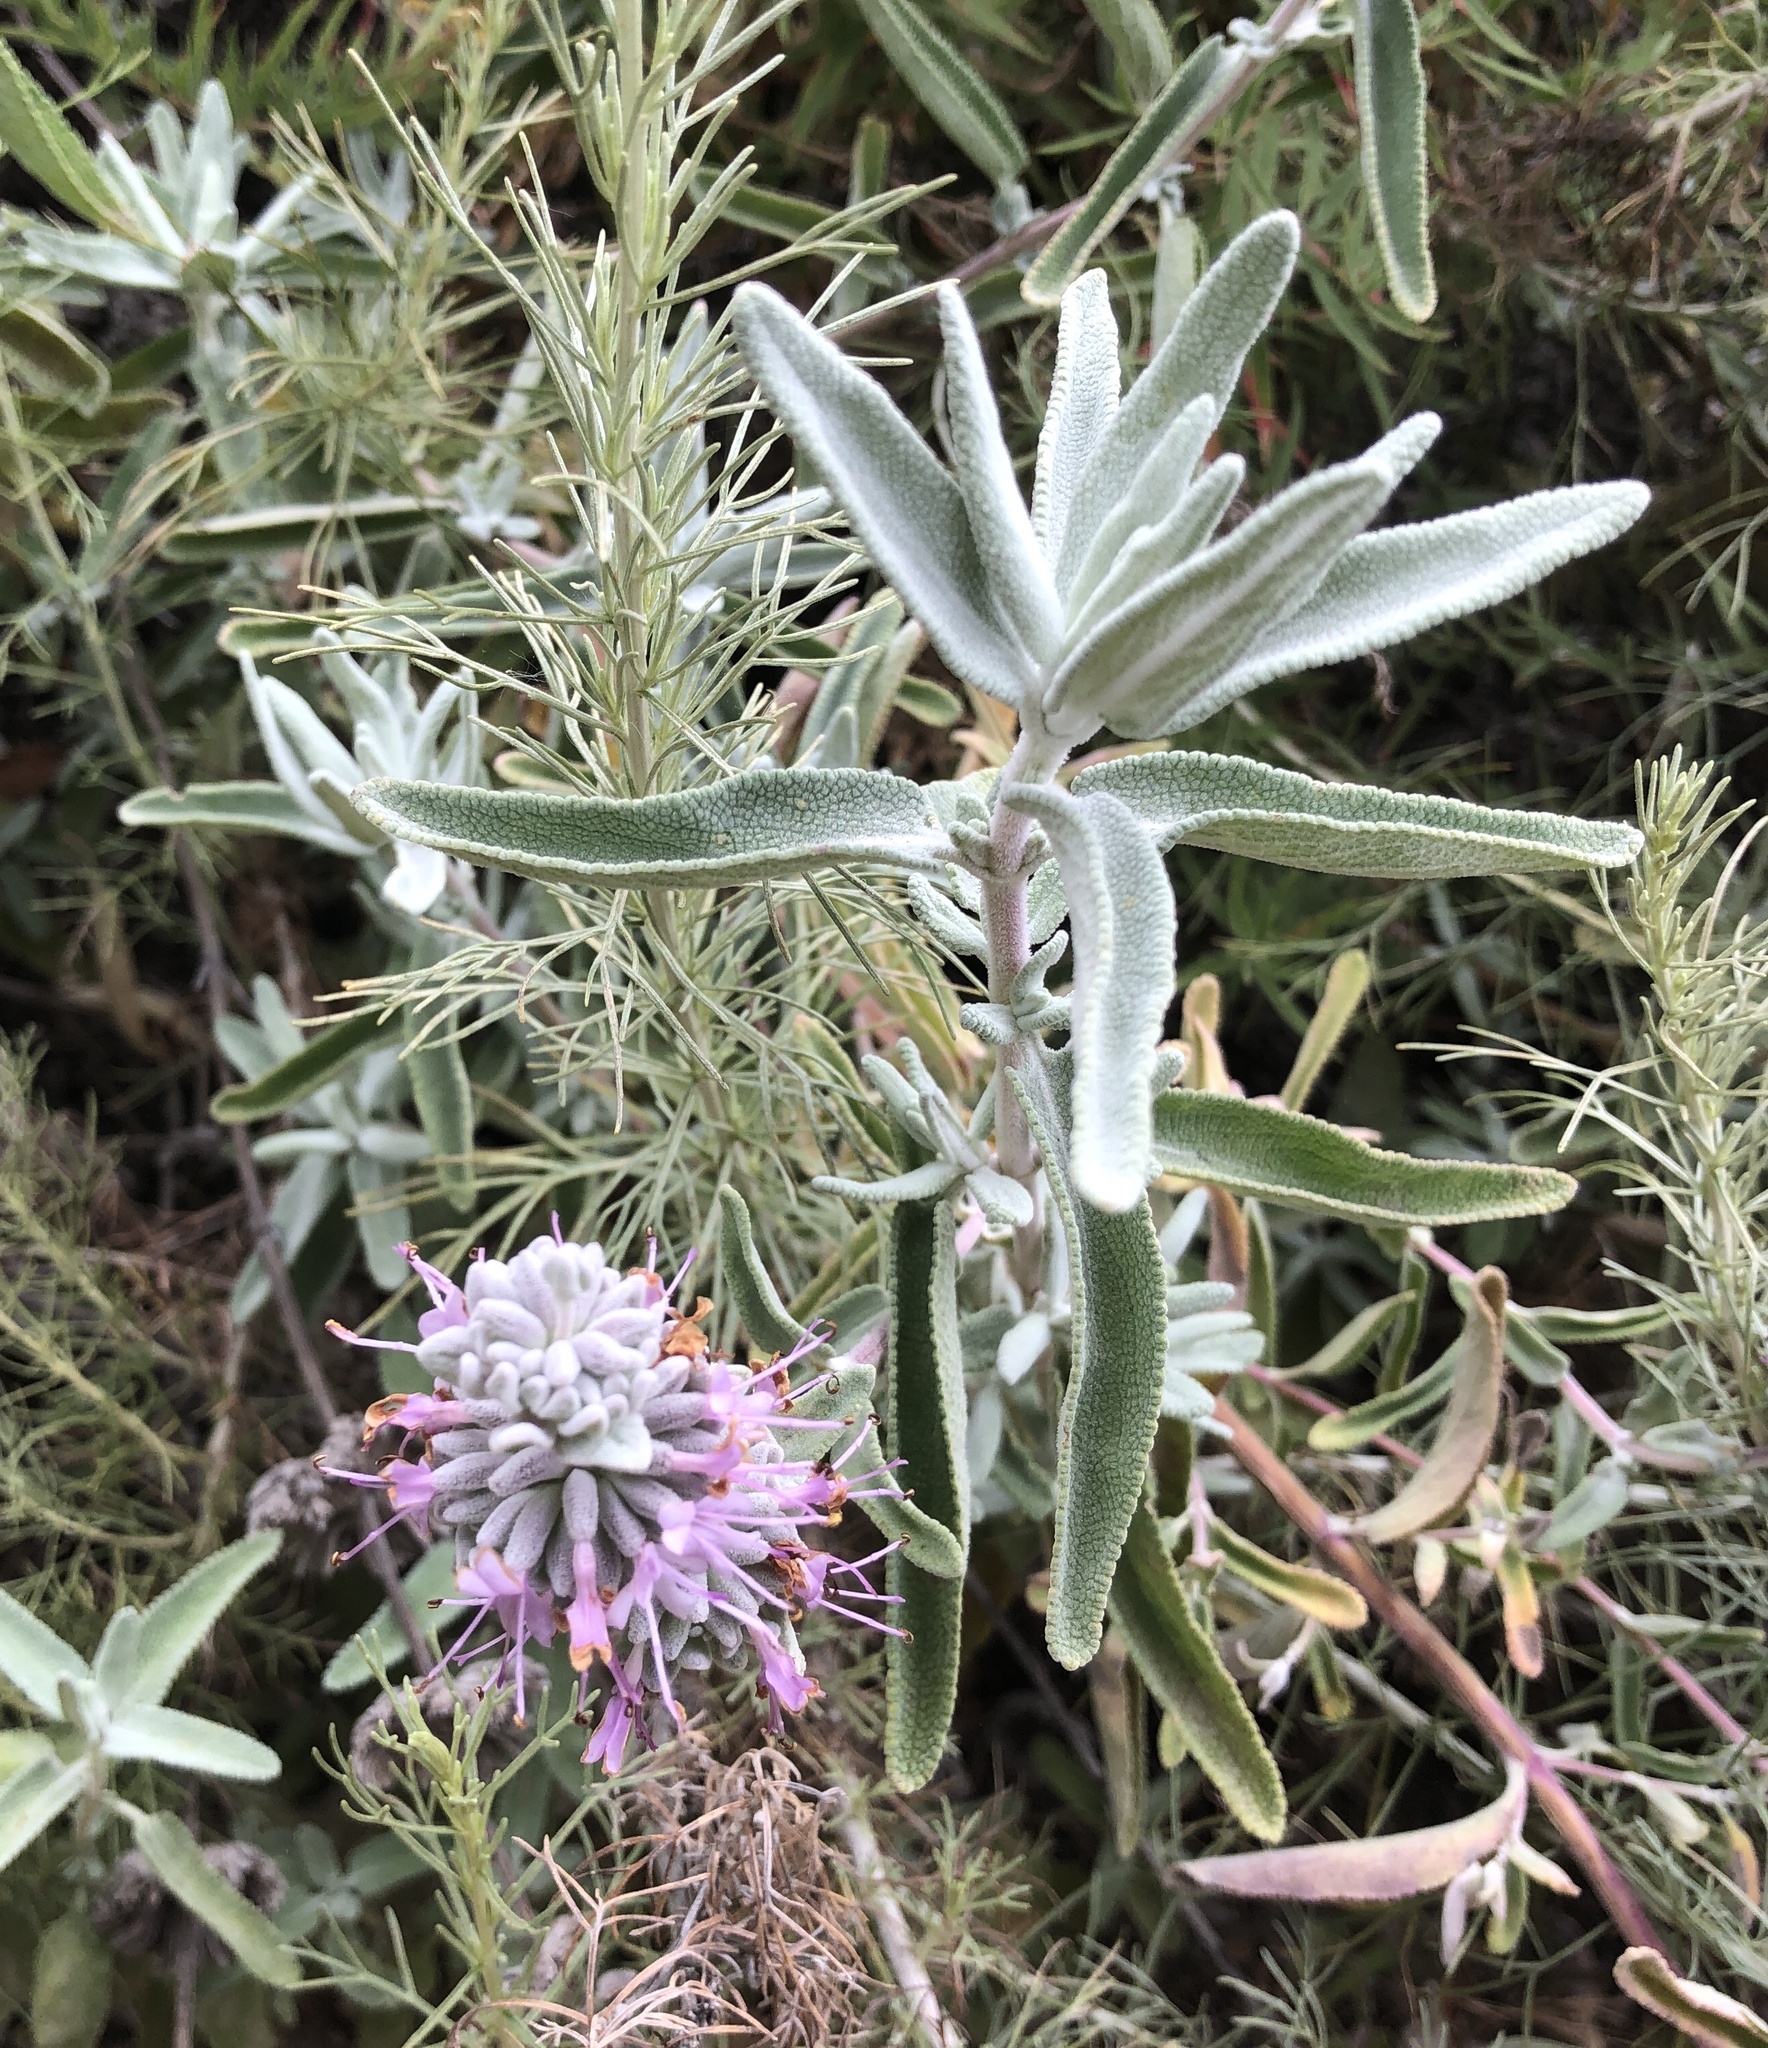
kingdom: Plantae
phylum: Tracheophyta
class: Magnoliopsida
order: Lamiales
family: Lamiaceae
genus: Salvia
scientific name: Salvia leucophylla
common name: Purple sage
